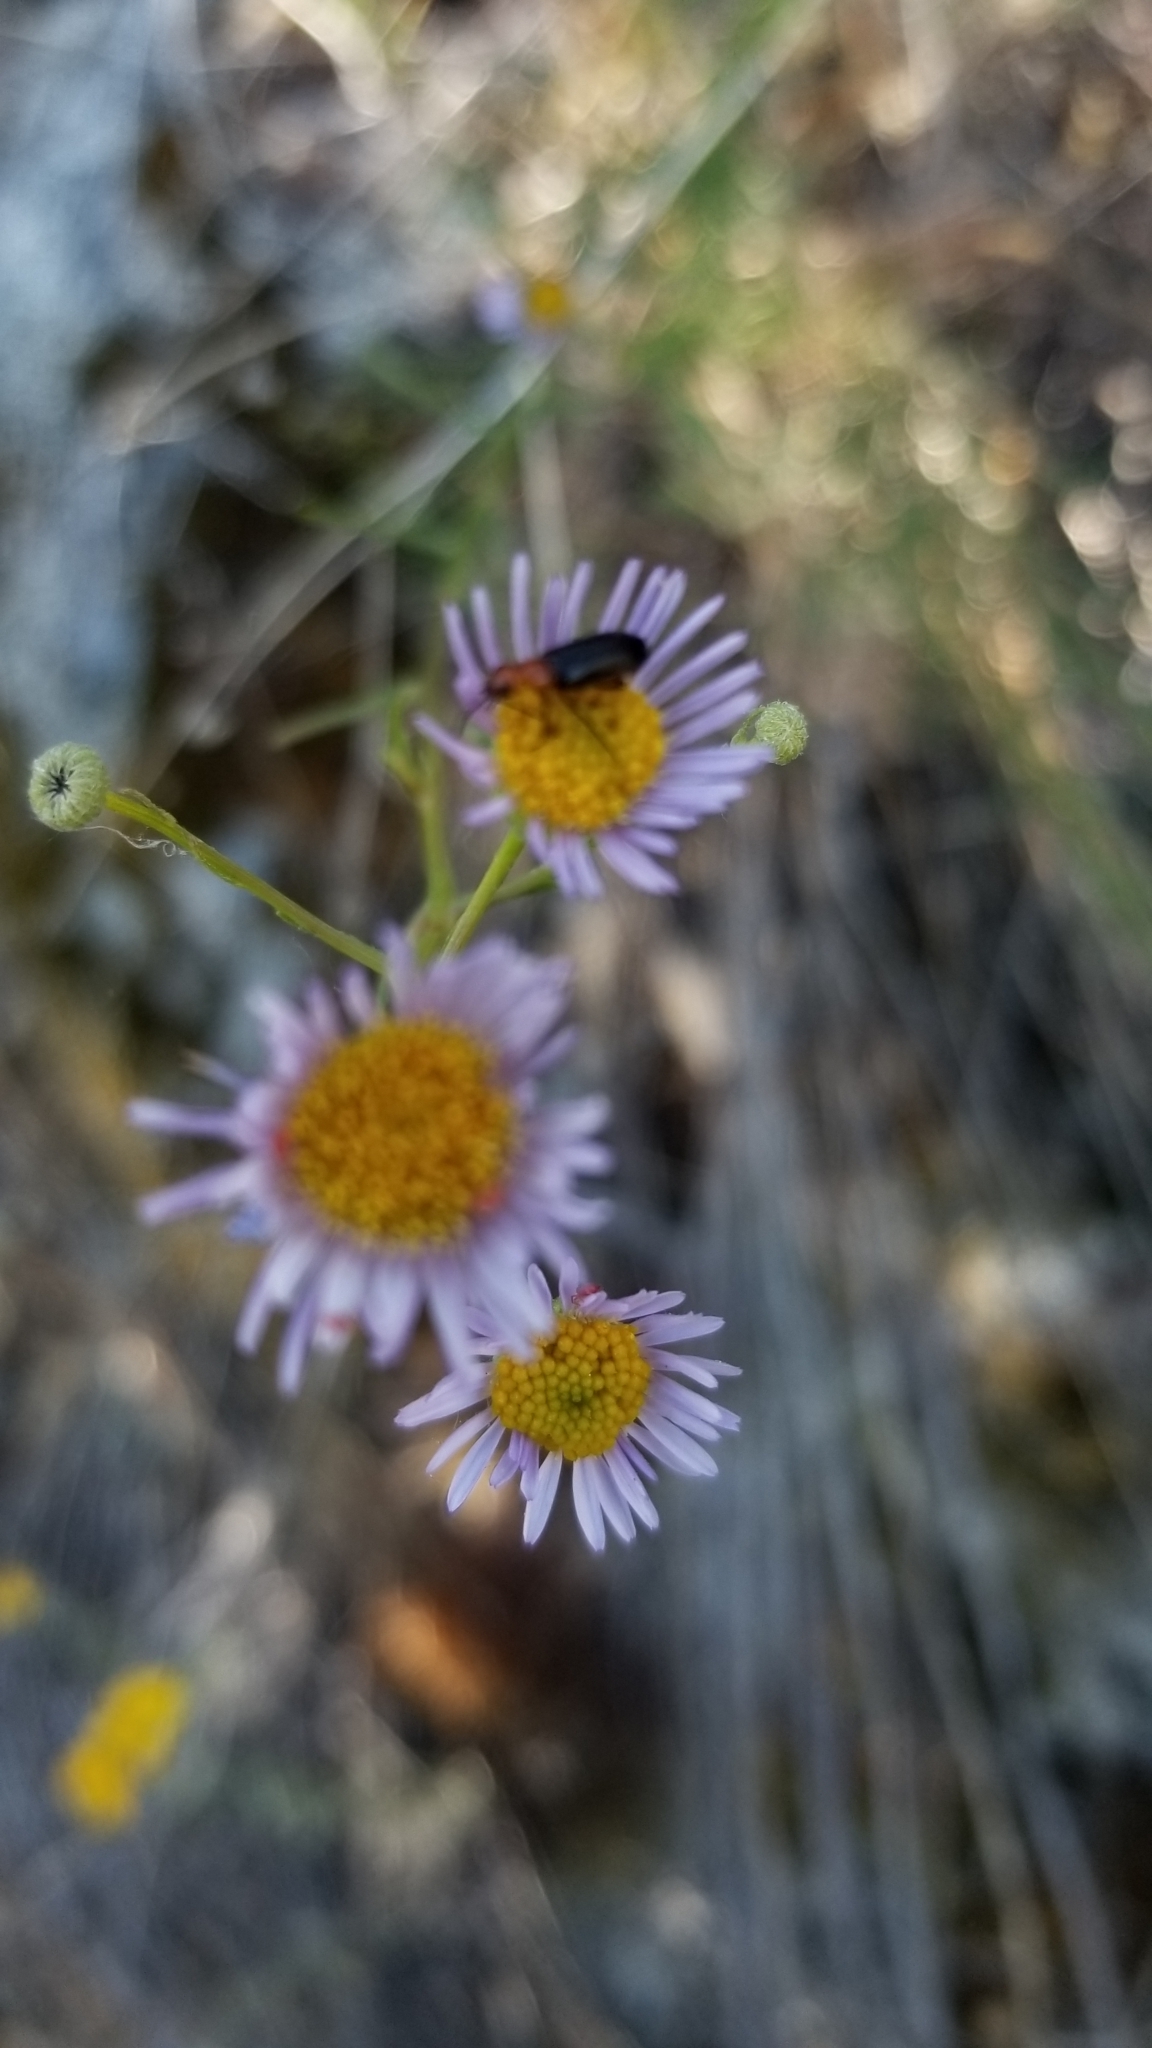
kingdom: Plantae
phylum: Tracheophyta
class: Magnoliopsida
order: Asterales
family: Asteraceae
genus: Erigeron
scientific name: Erigeron foliosus
